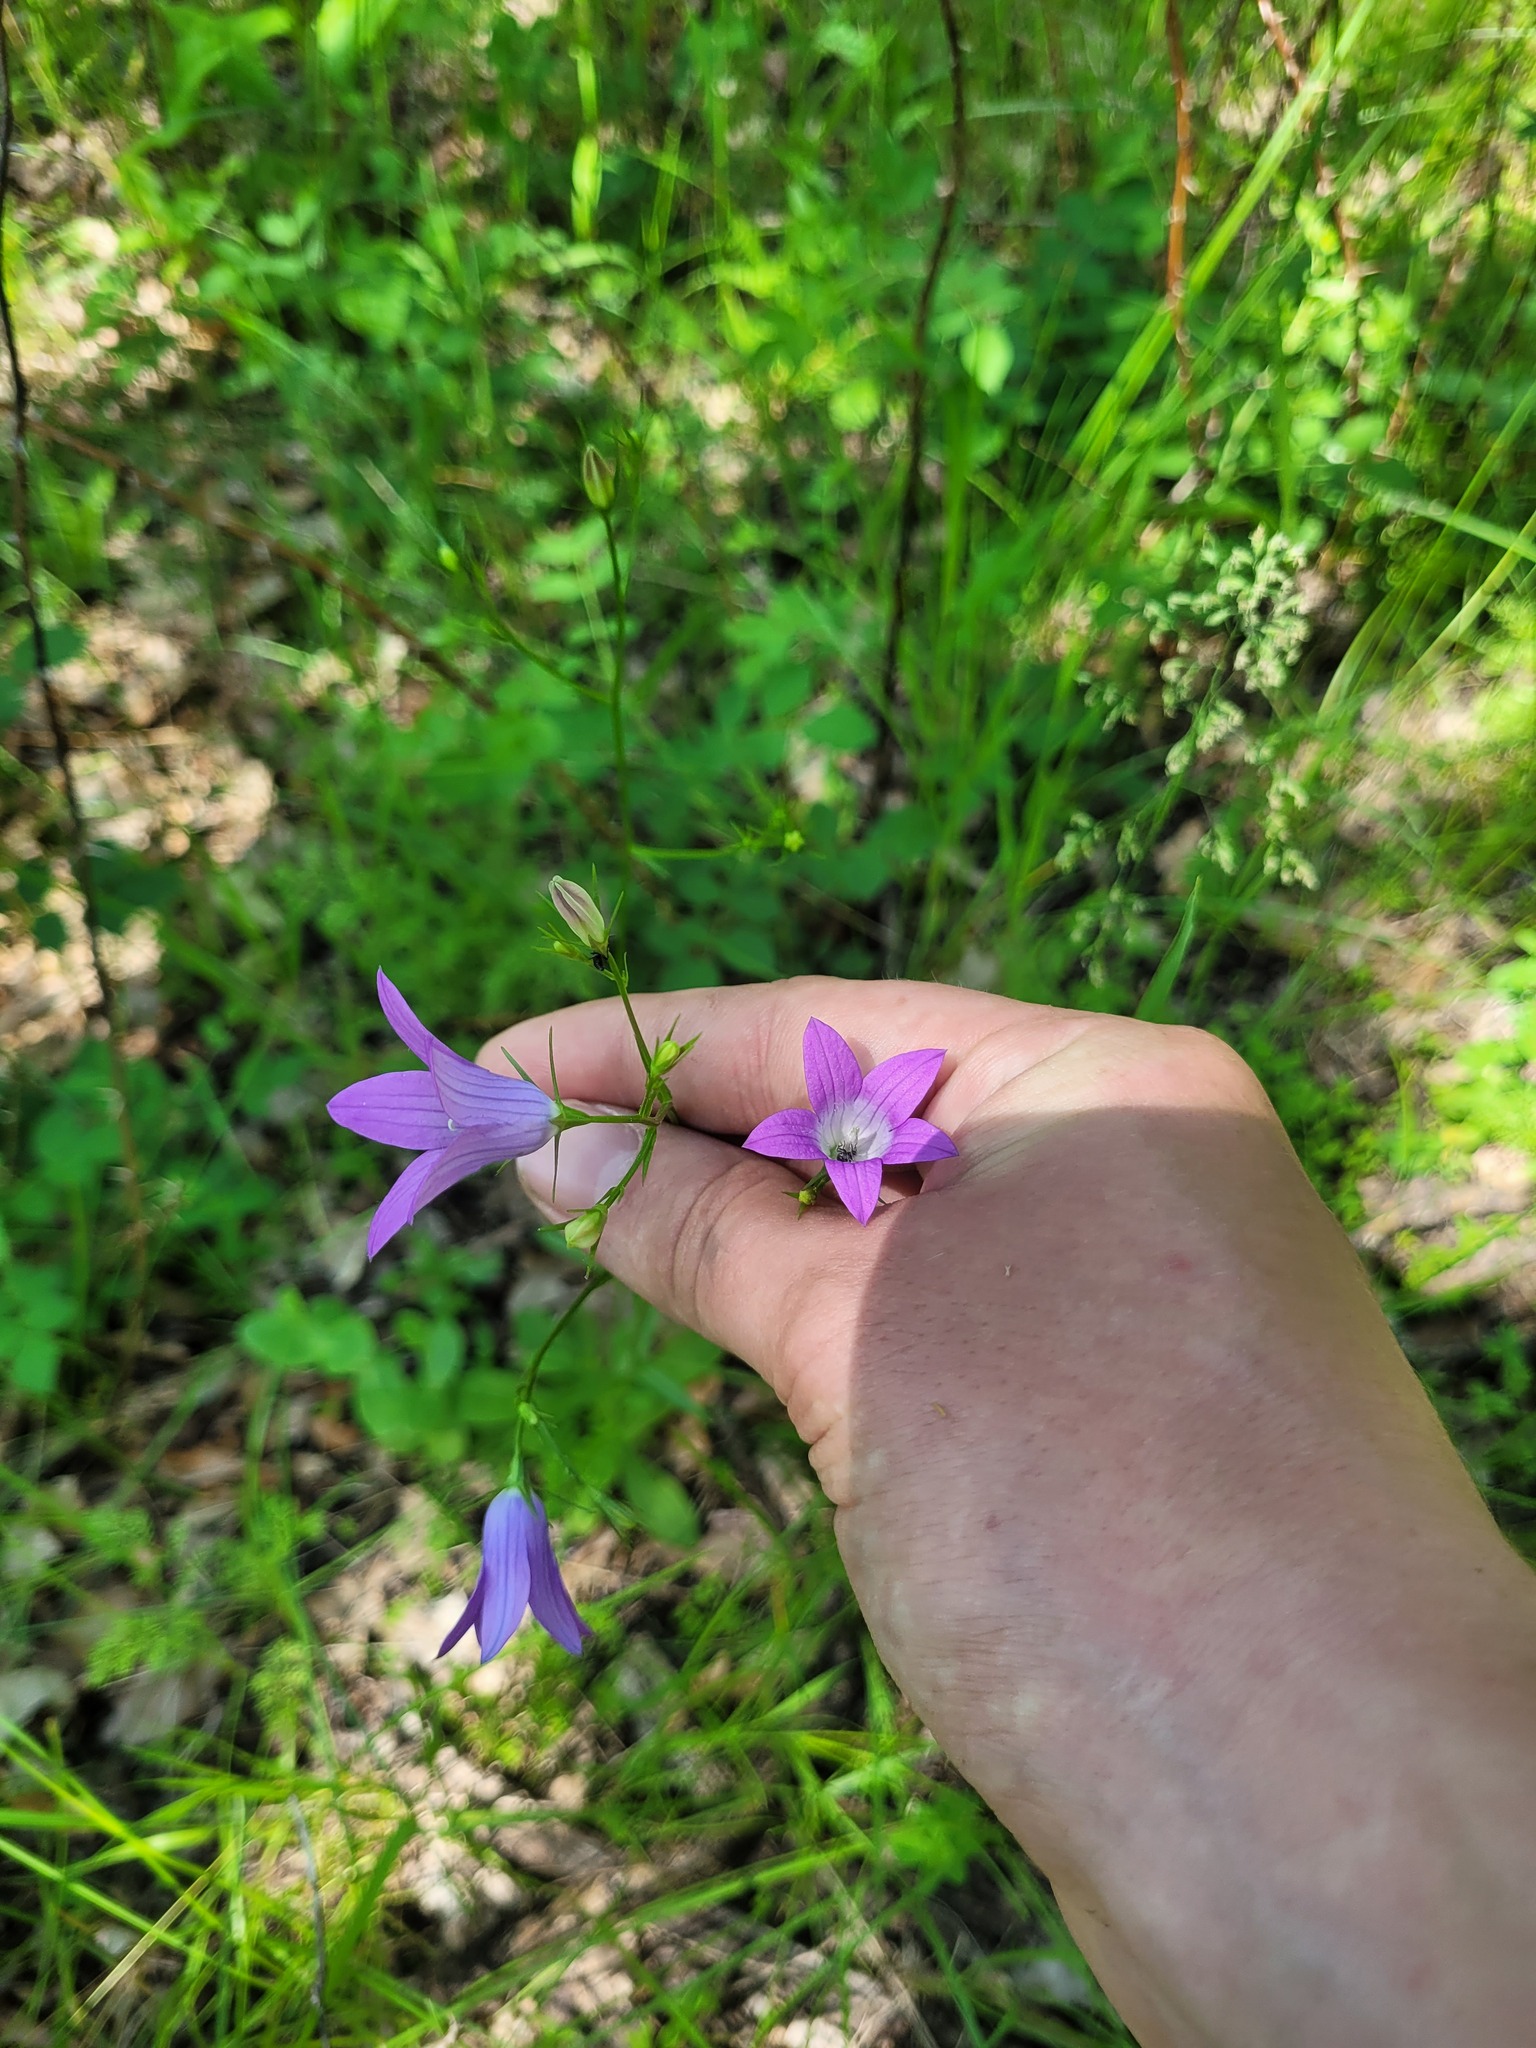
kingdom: Plantae
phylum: Tracheophyta
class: Magnoliopsida
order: Asterales
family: Campanulaceae
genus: Campanula
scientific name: Campanula patula
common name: Spreading bellflower
